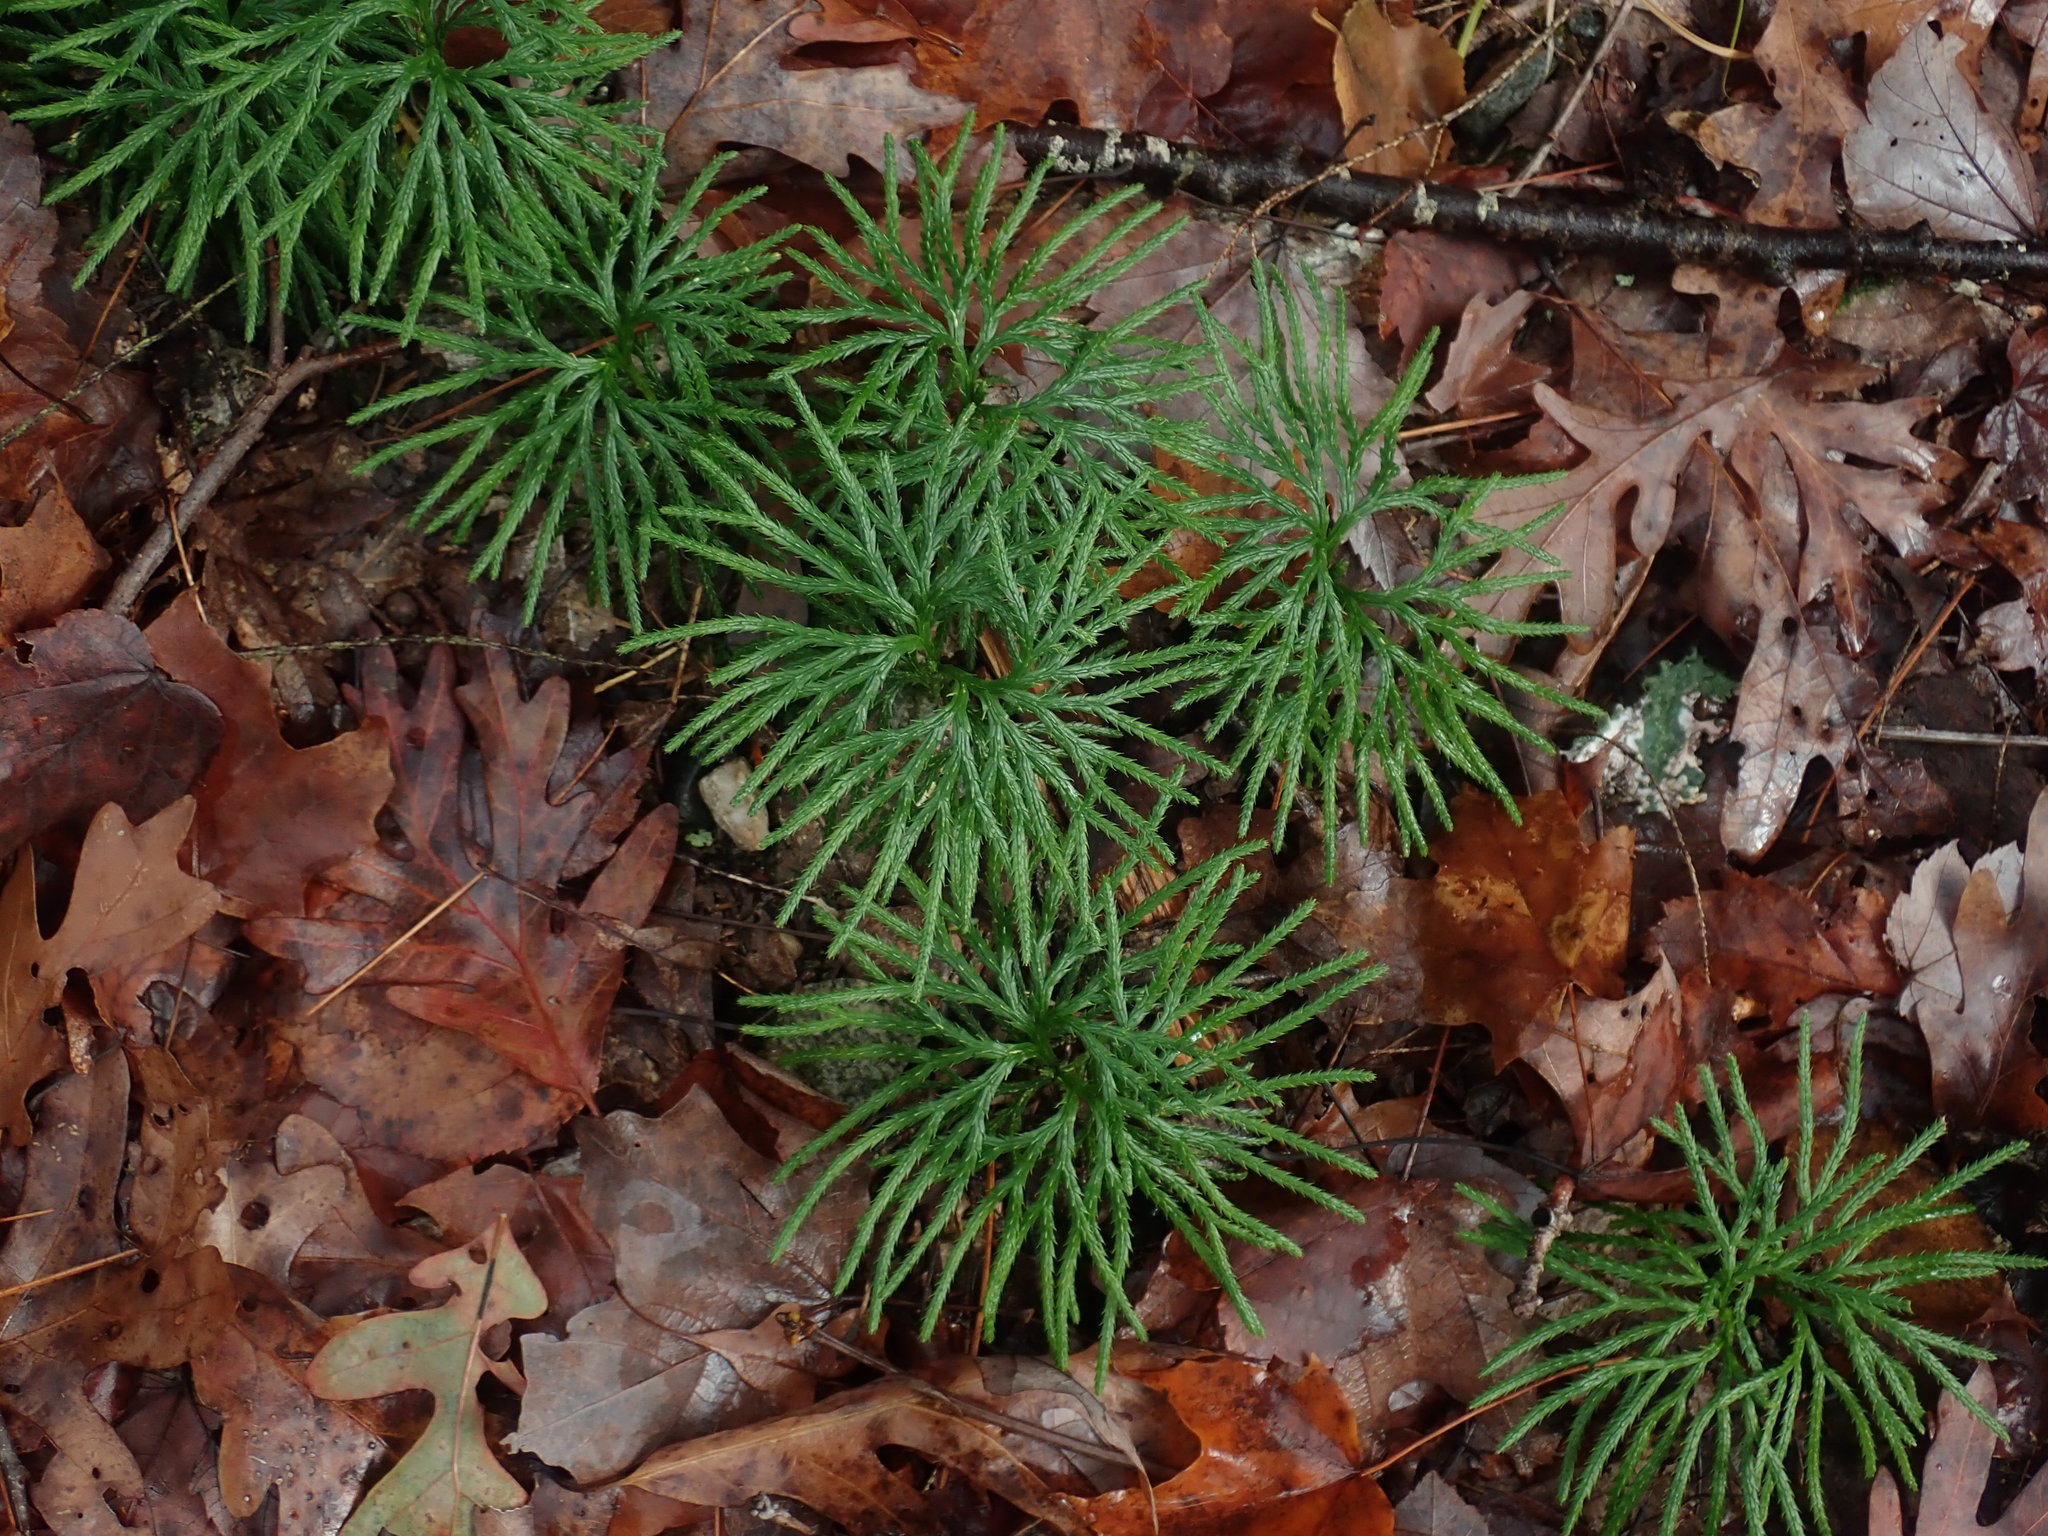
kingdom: Plantae
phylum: Tracheophyta
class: Lycopodiopsida
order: Lycopodiales
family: Lycopodiaceae
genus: Diphasiastrum
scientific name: Diphasiastrum digitatum
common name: Southern running-pine
